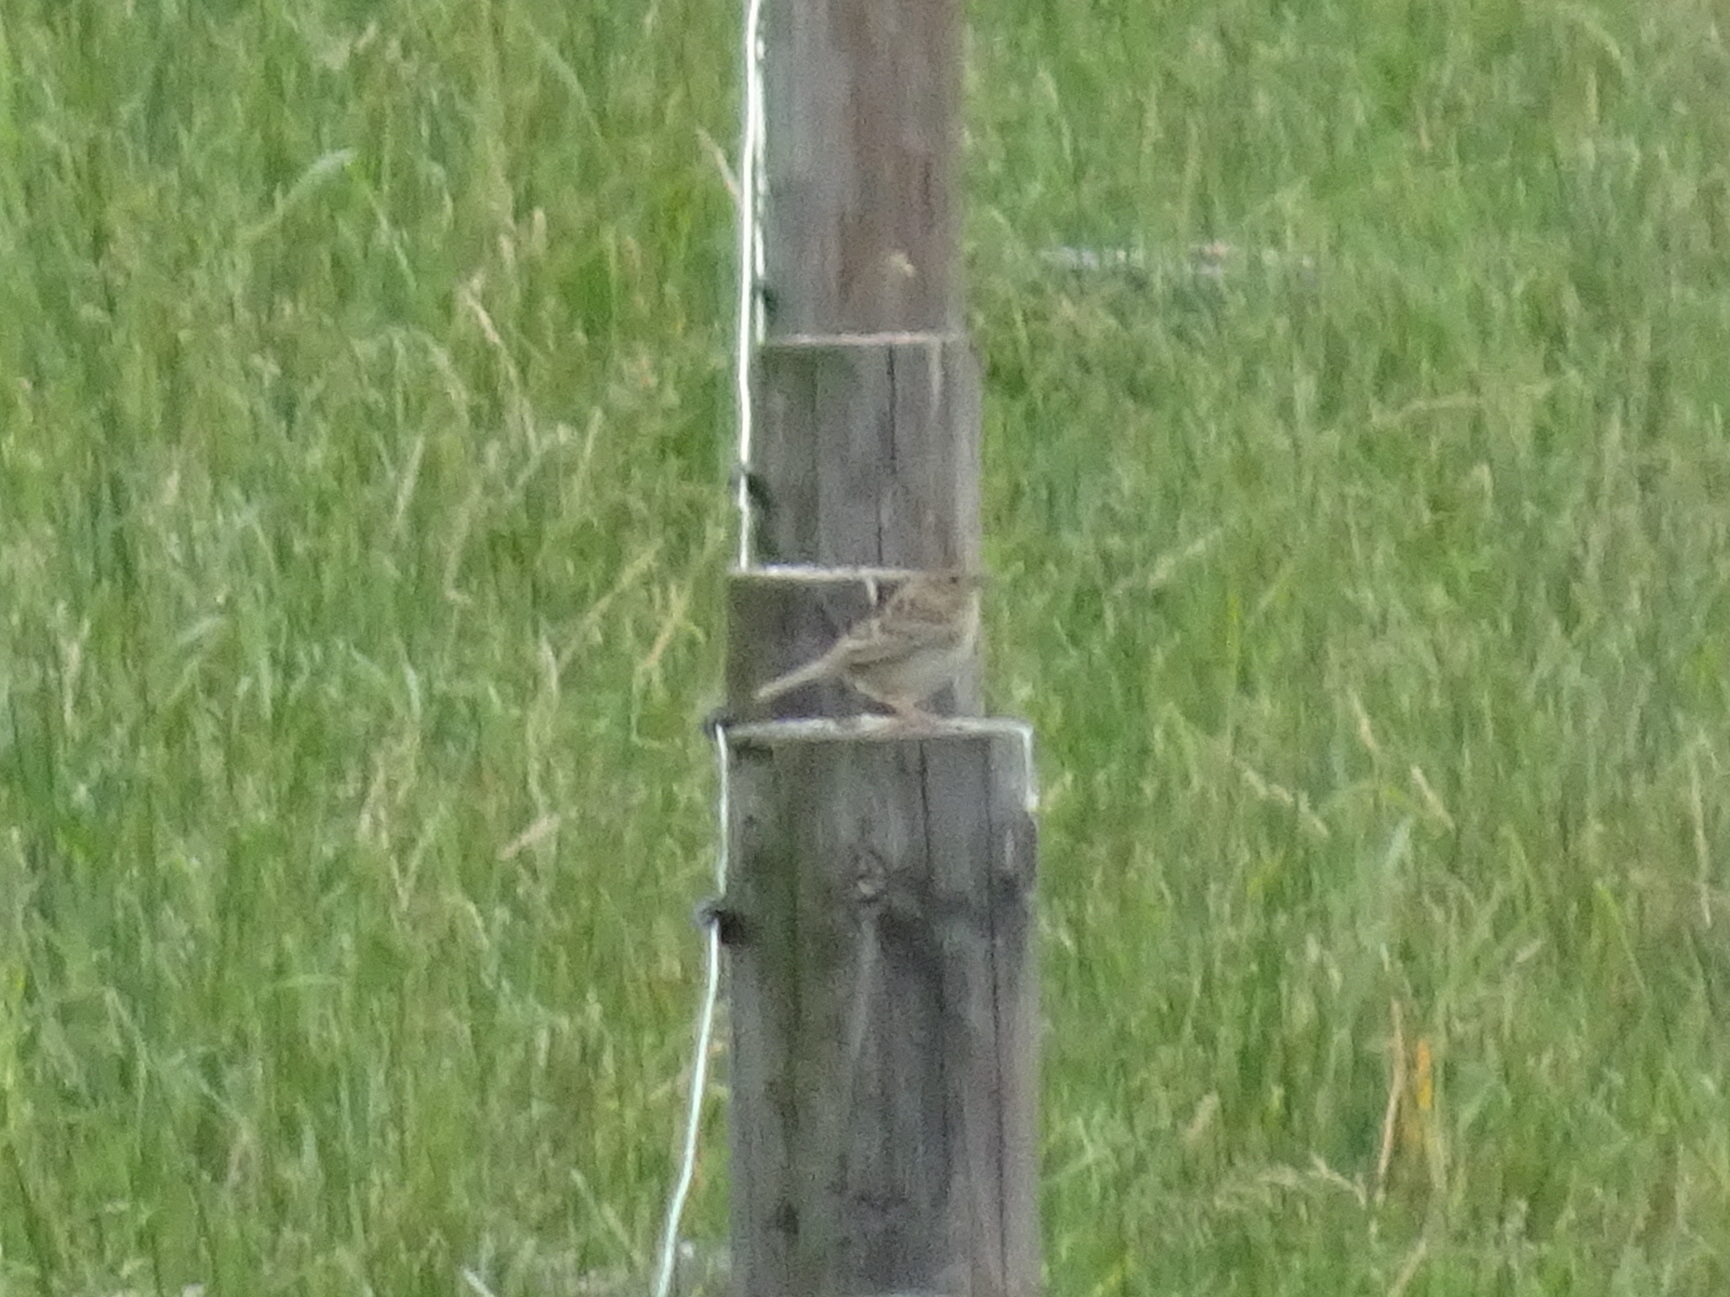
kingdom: Animalia
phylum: Chordata
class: Aves
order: Passeriformes
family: Passerellidae
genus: Ammodramus
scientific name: Ammodramus savannarum
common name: Grasshopper sparrow
